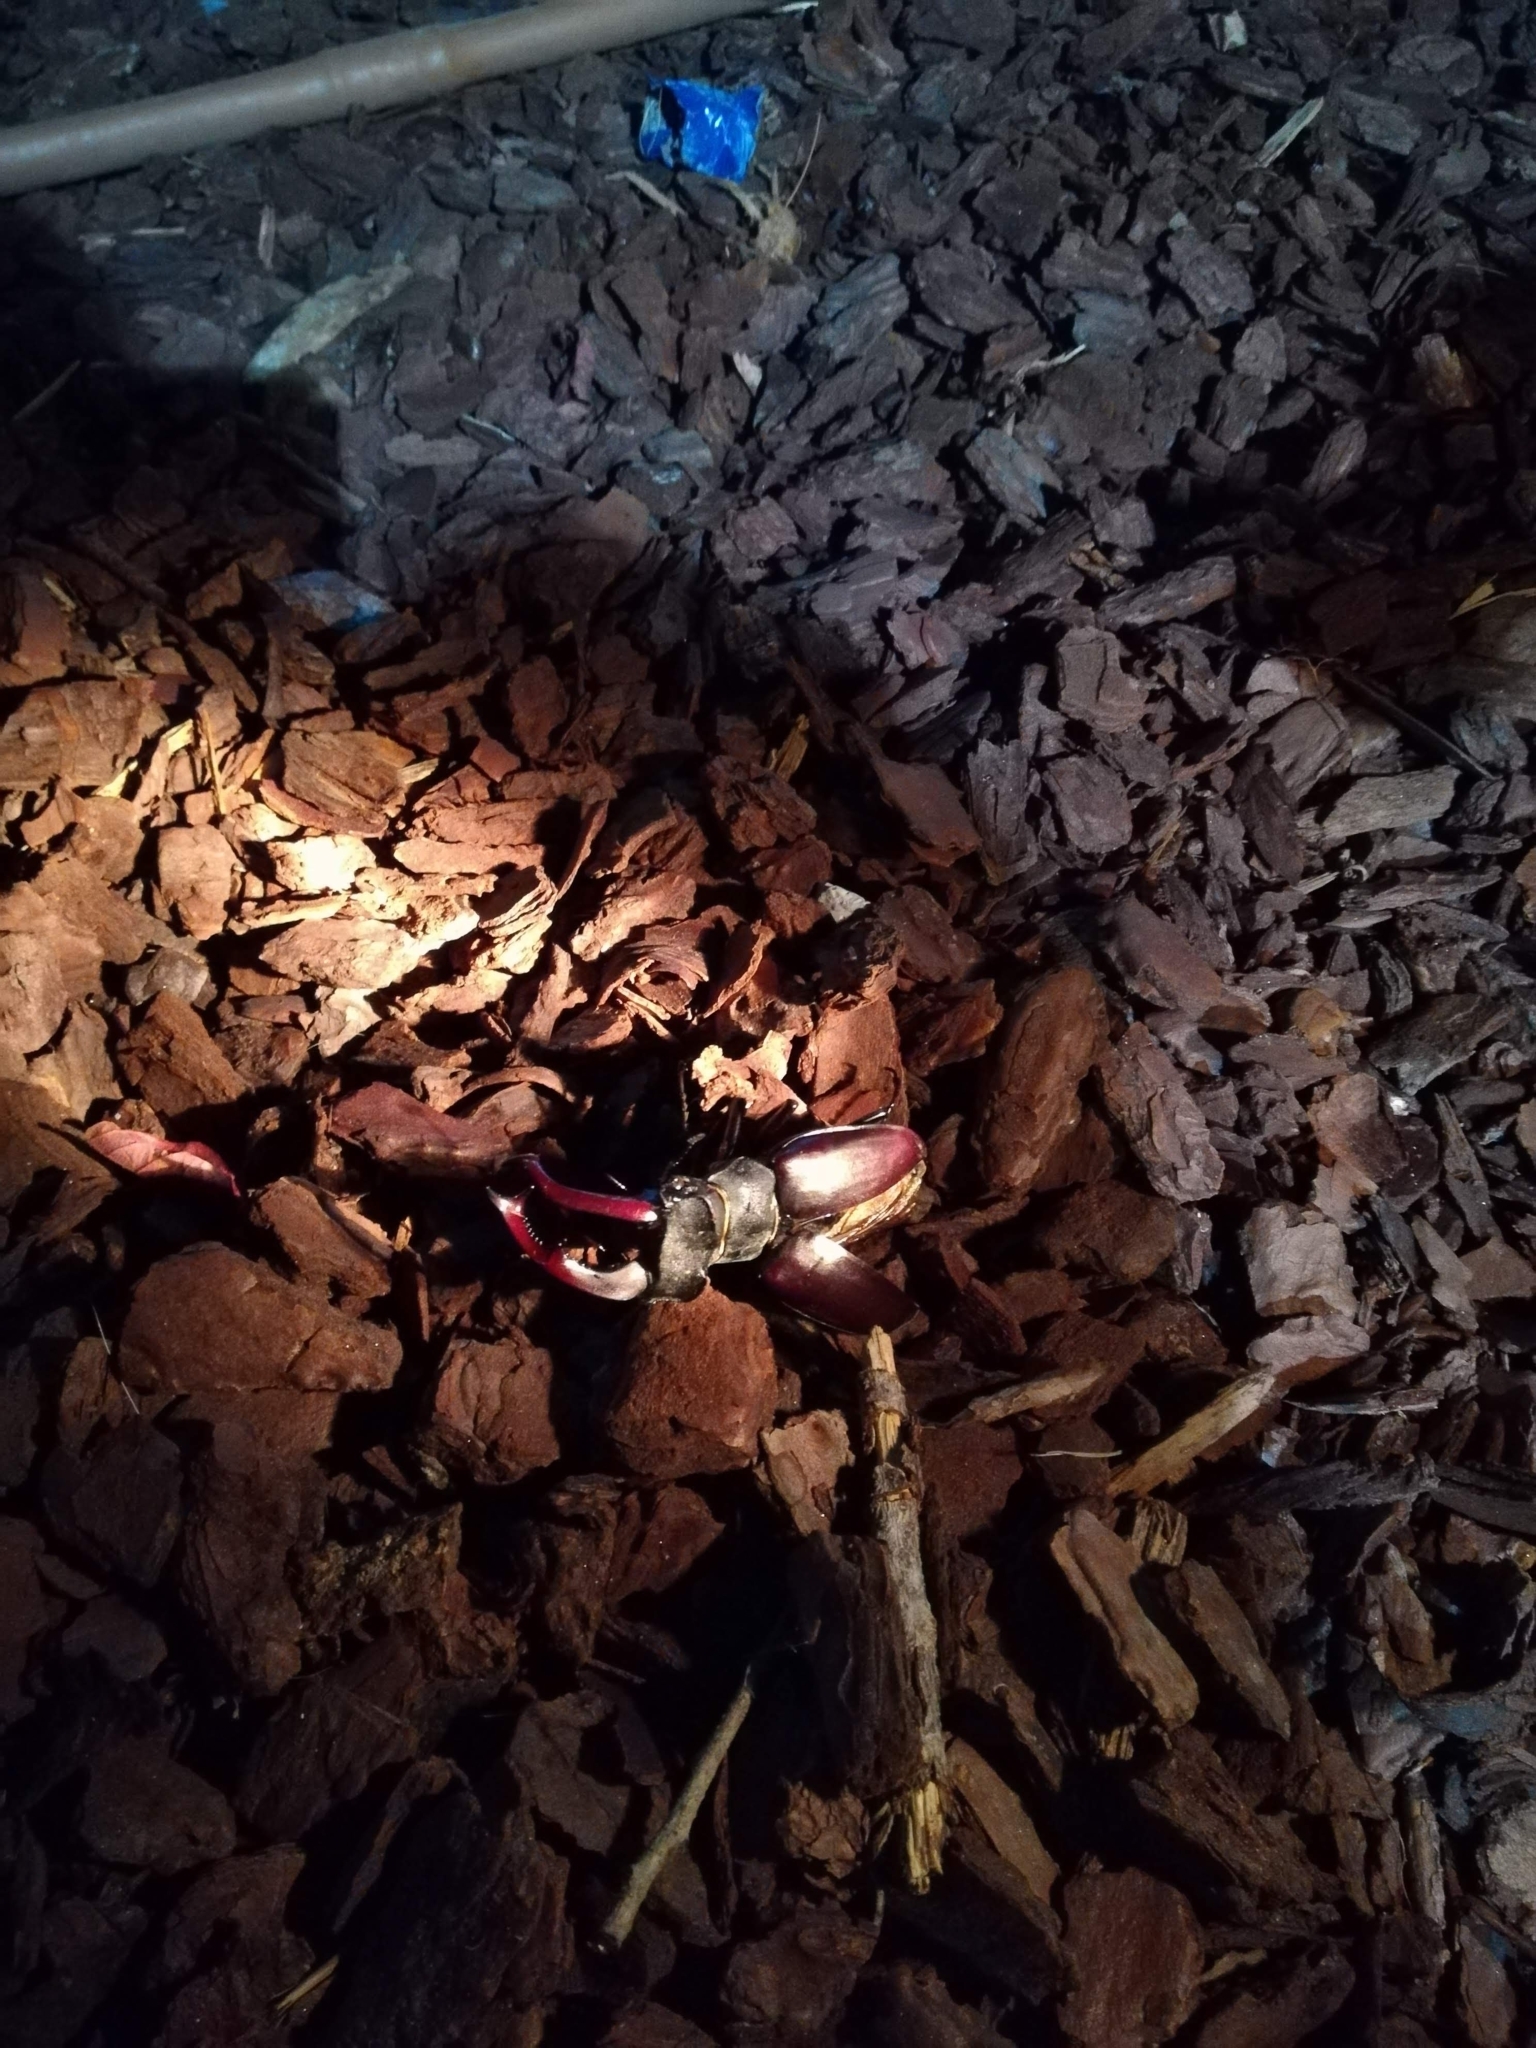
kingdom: Animalia
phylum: Arthropoda
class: Insecta
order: Coleoptera
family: Lucanidae
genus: Lucanus
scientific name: Lucanus cervus
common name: Stag beetle
